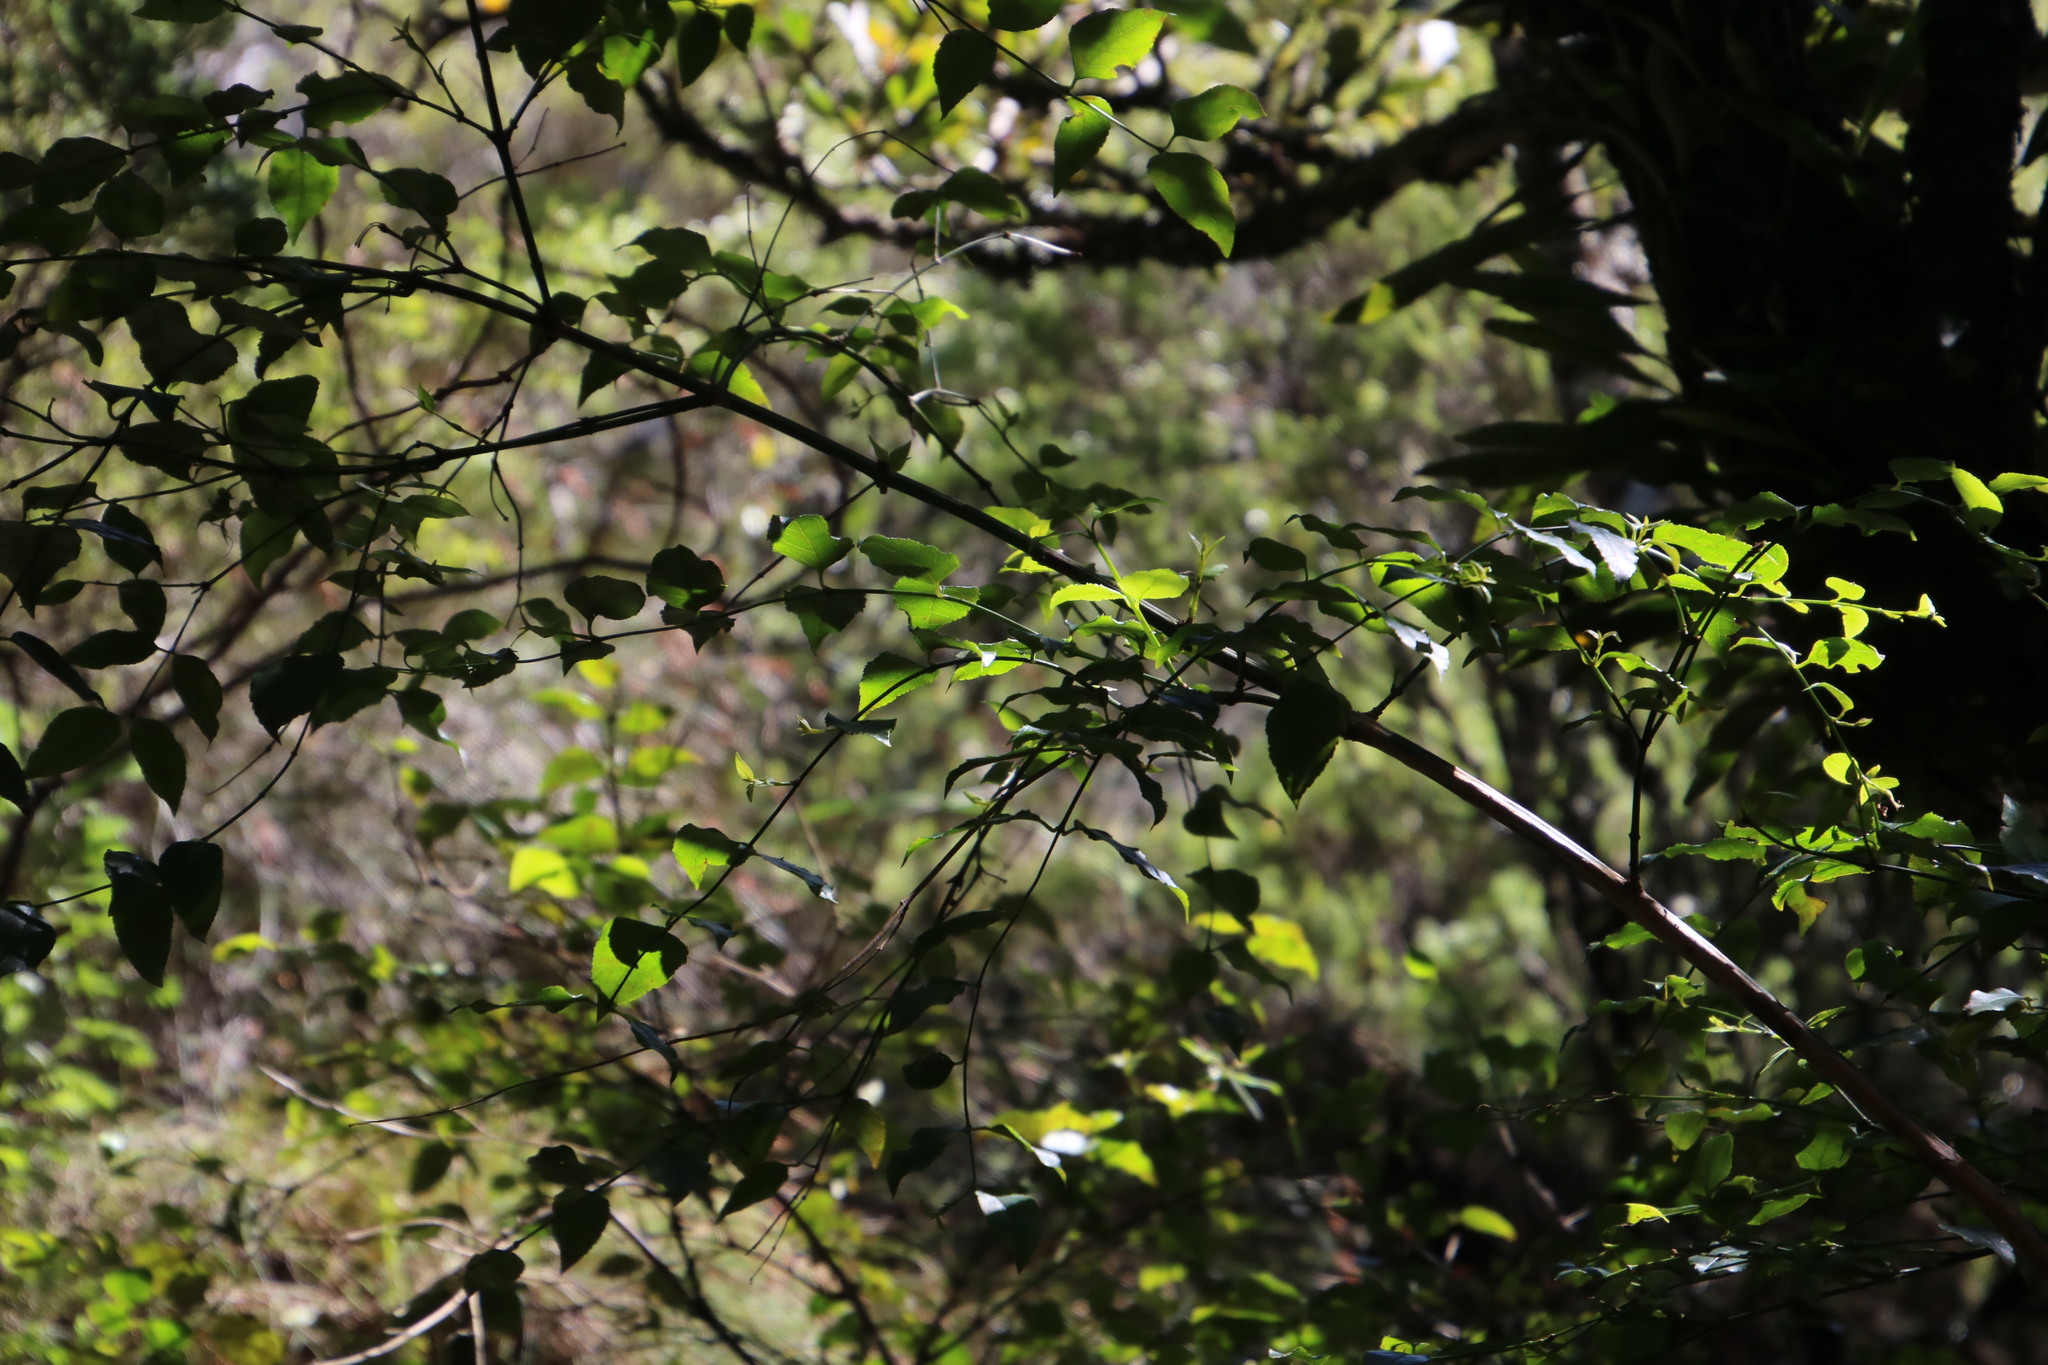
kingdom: Plantae
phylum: Tracheophyta
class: Magnoliopsida
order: Lamiales
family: Stilbaceae
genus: Halleria
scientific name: Halleria lucida
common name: Tree fuschia
